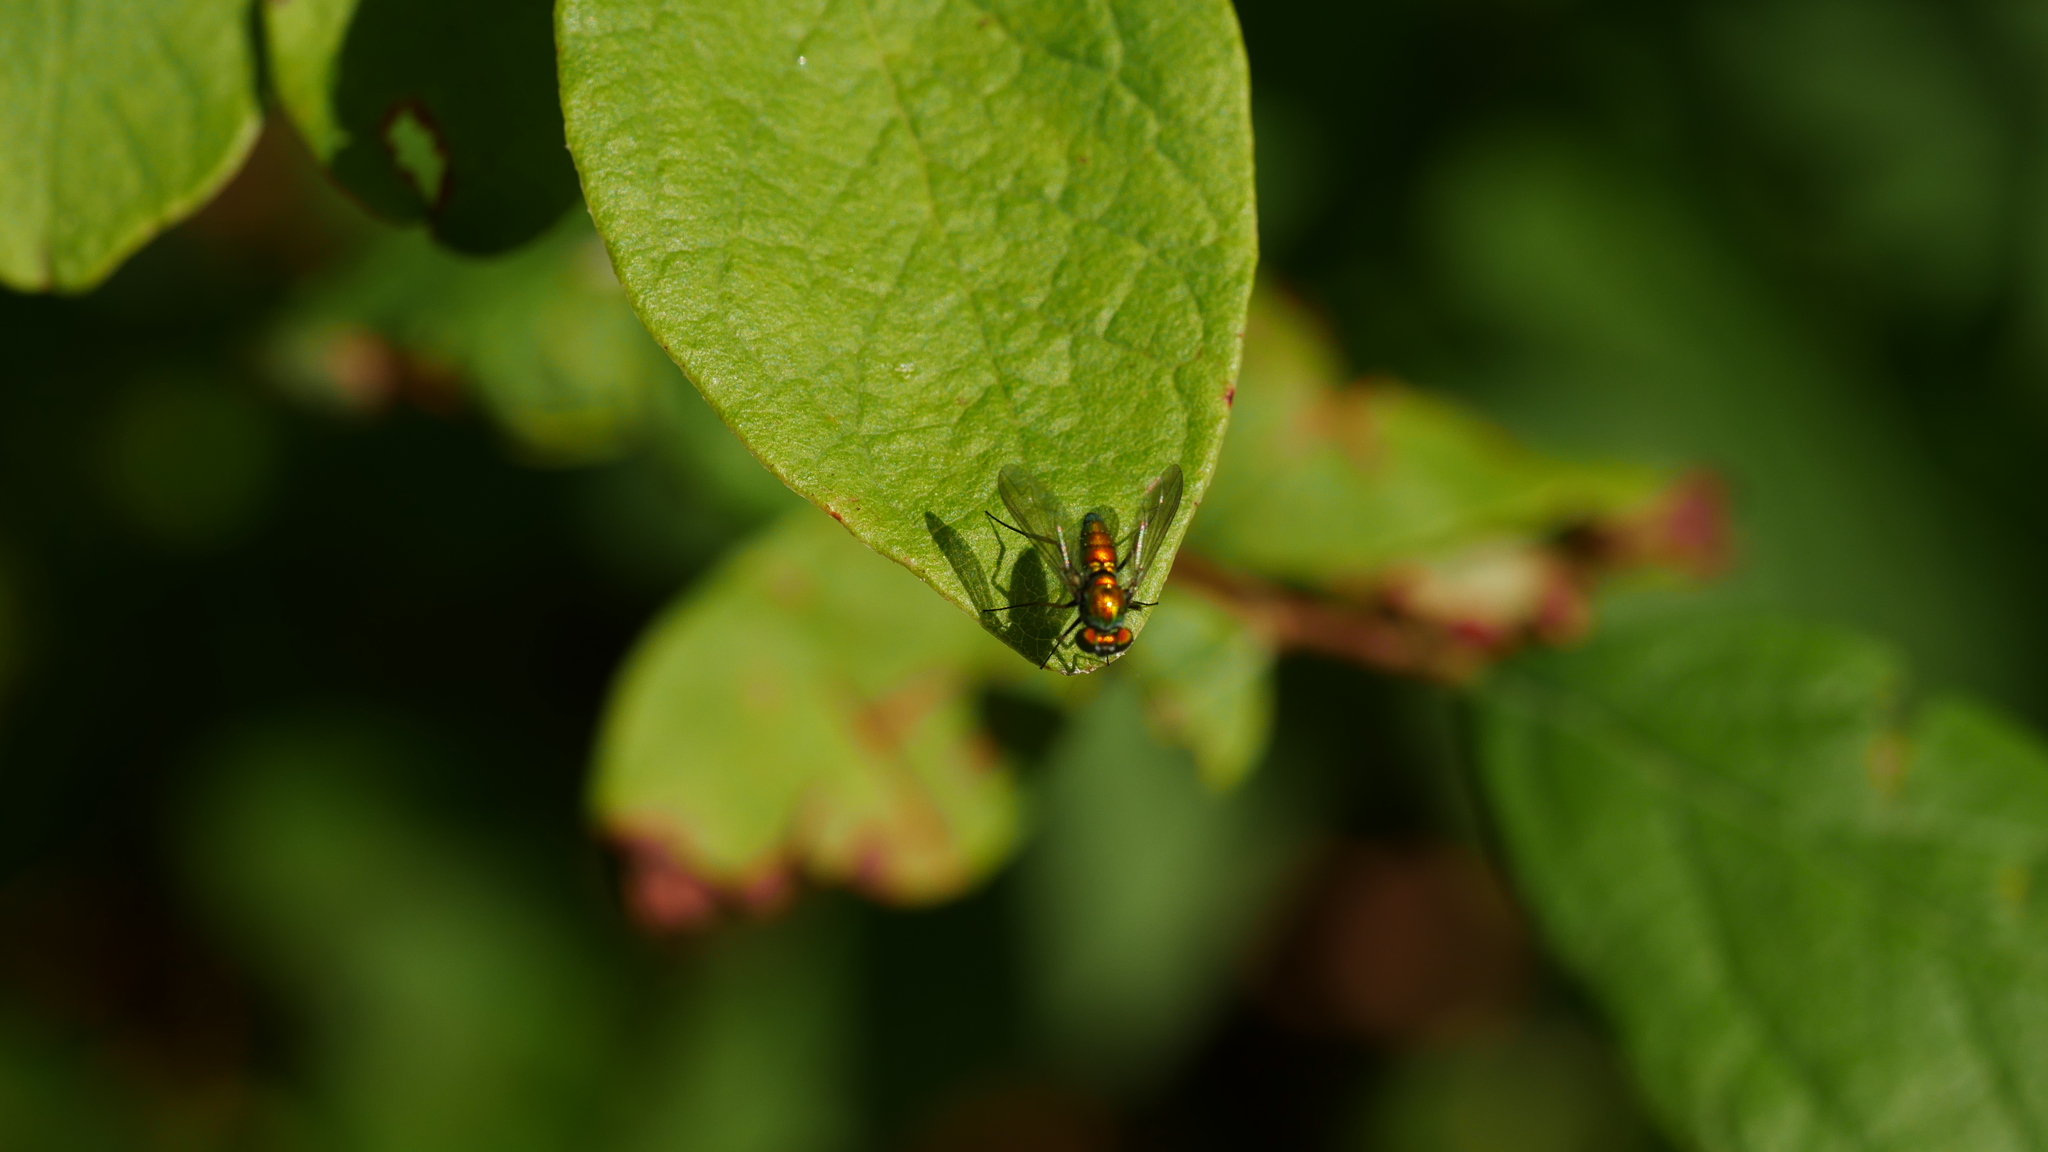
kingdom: Animalia
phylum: Arthropoda
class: Insecta
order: Diptera
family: Dolichopodidae
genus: Condylostylus
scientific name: Condylostylus
